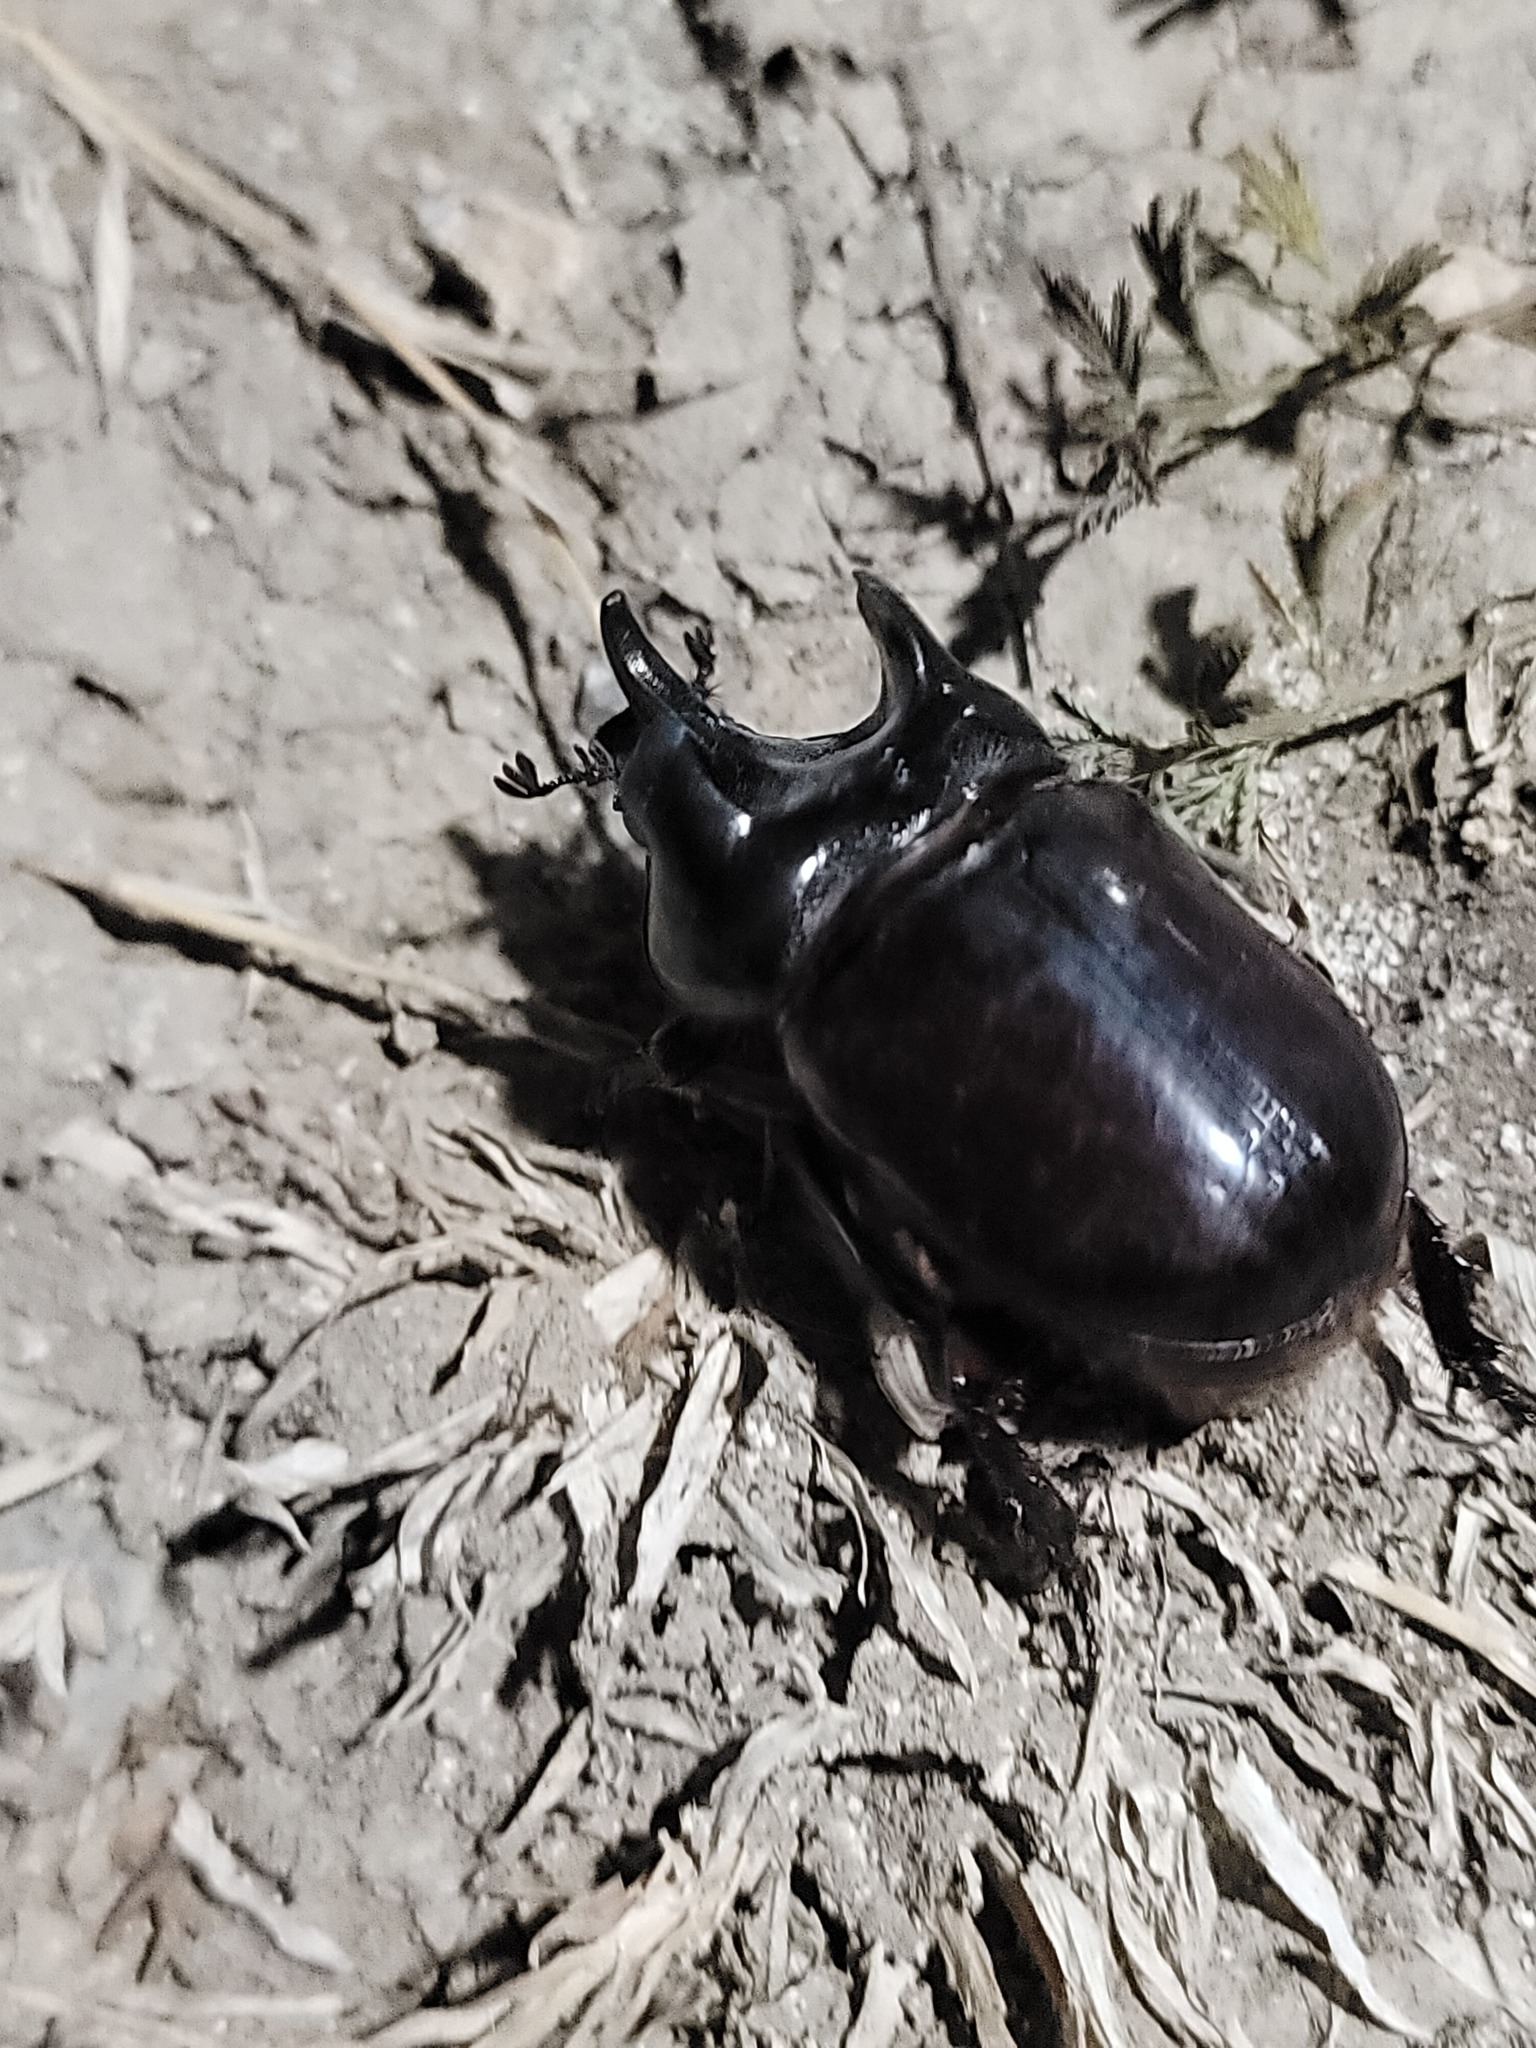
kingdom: Animalia
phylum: Arthropoda
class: Insecta
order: Coleoptera
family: Scarabaeidae
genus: Strategus
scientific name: Strategus aloeus
